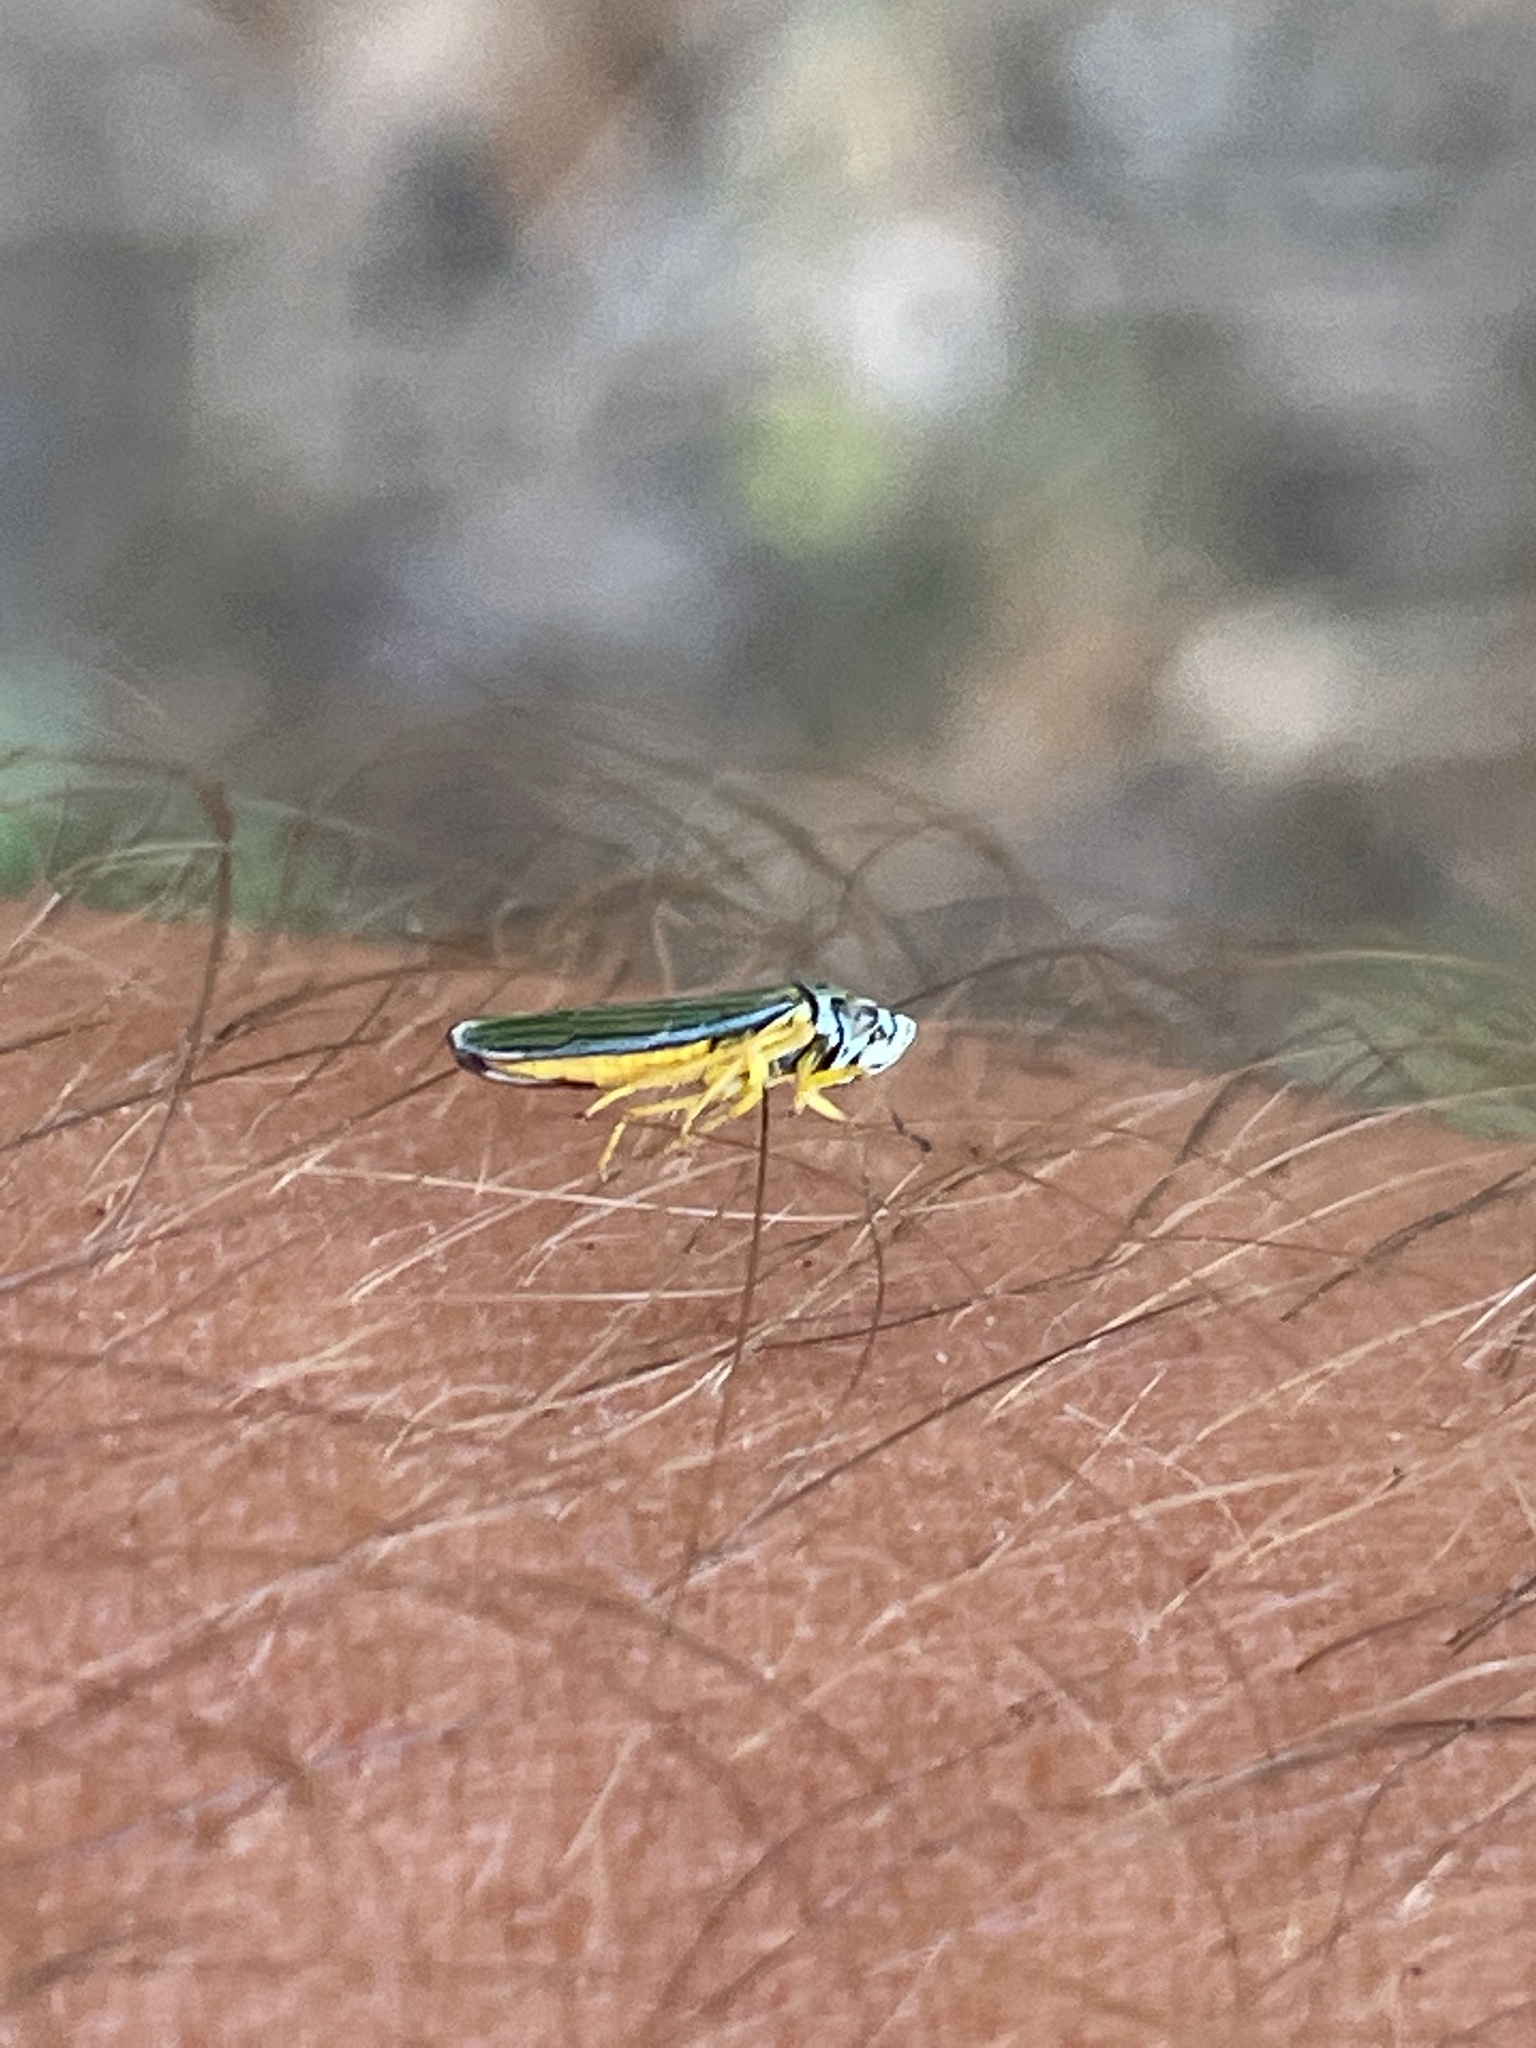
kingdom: Animalia
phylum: Arthropoda
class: Insecta
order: Hemiptera
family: Cicadellidae
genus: Graphocephala
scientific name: Graphocephala atropunctata
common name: Blue-green sharpshooter
